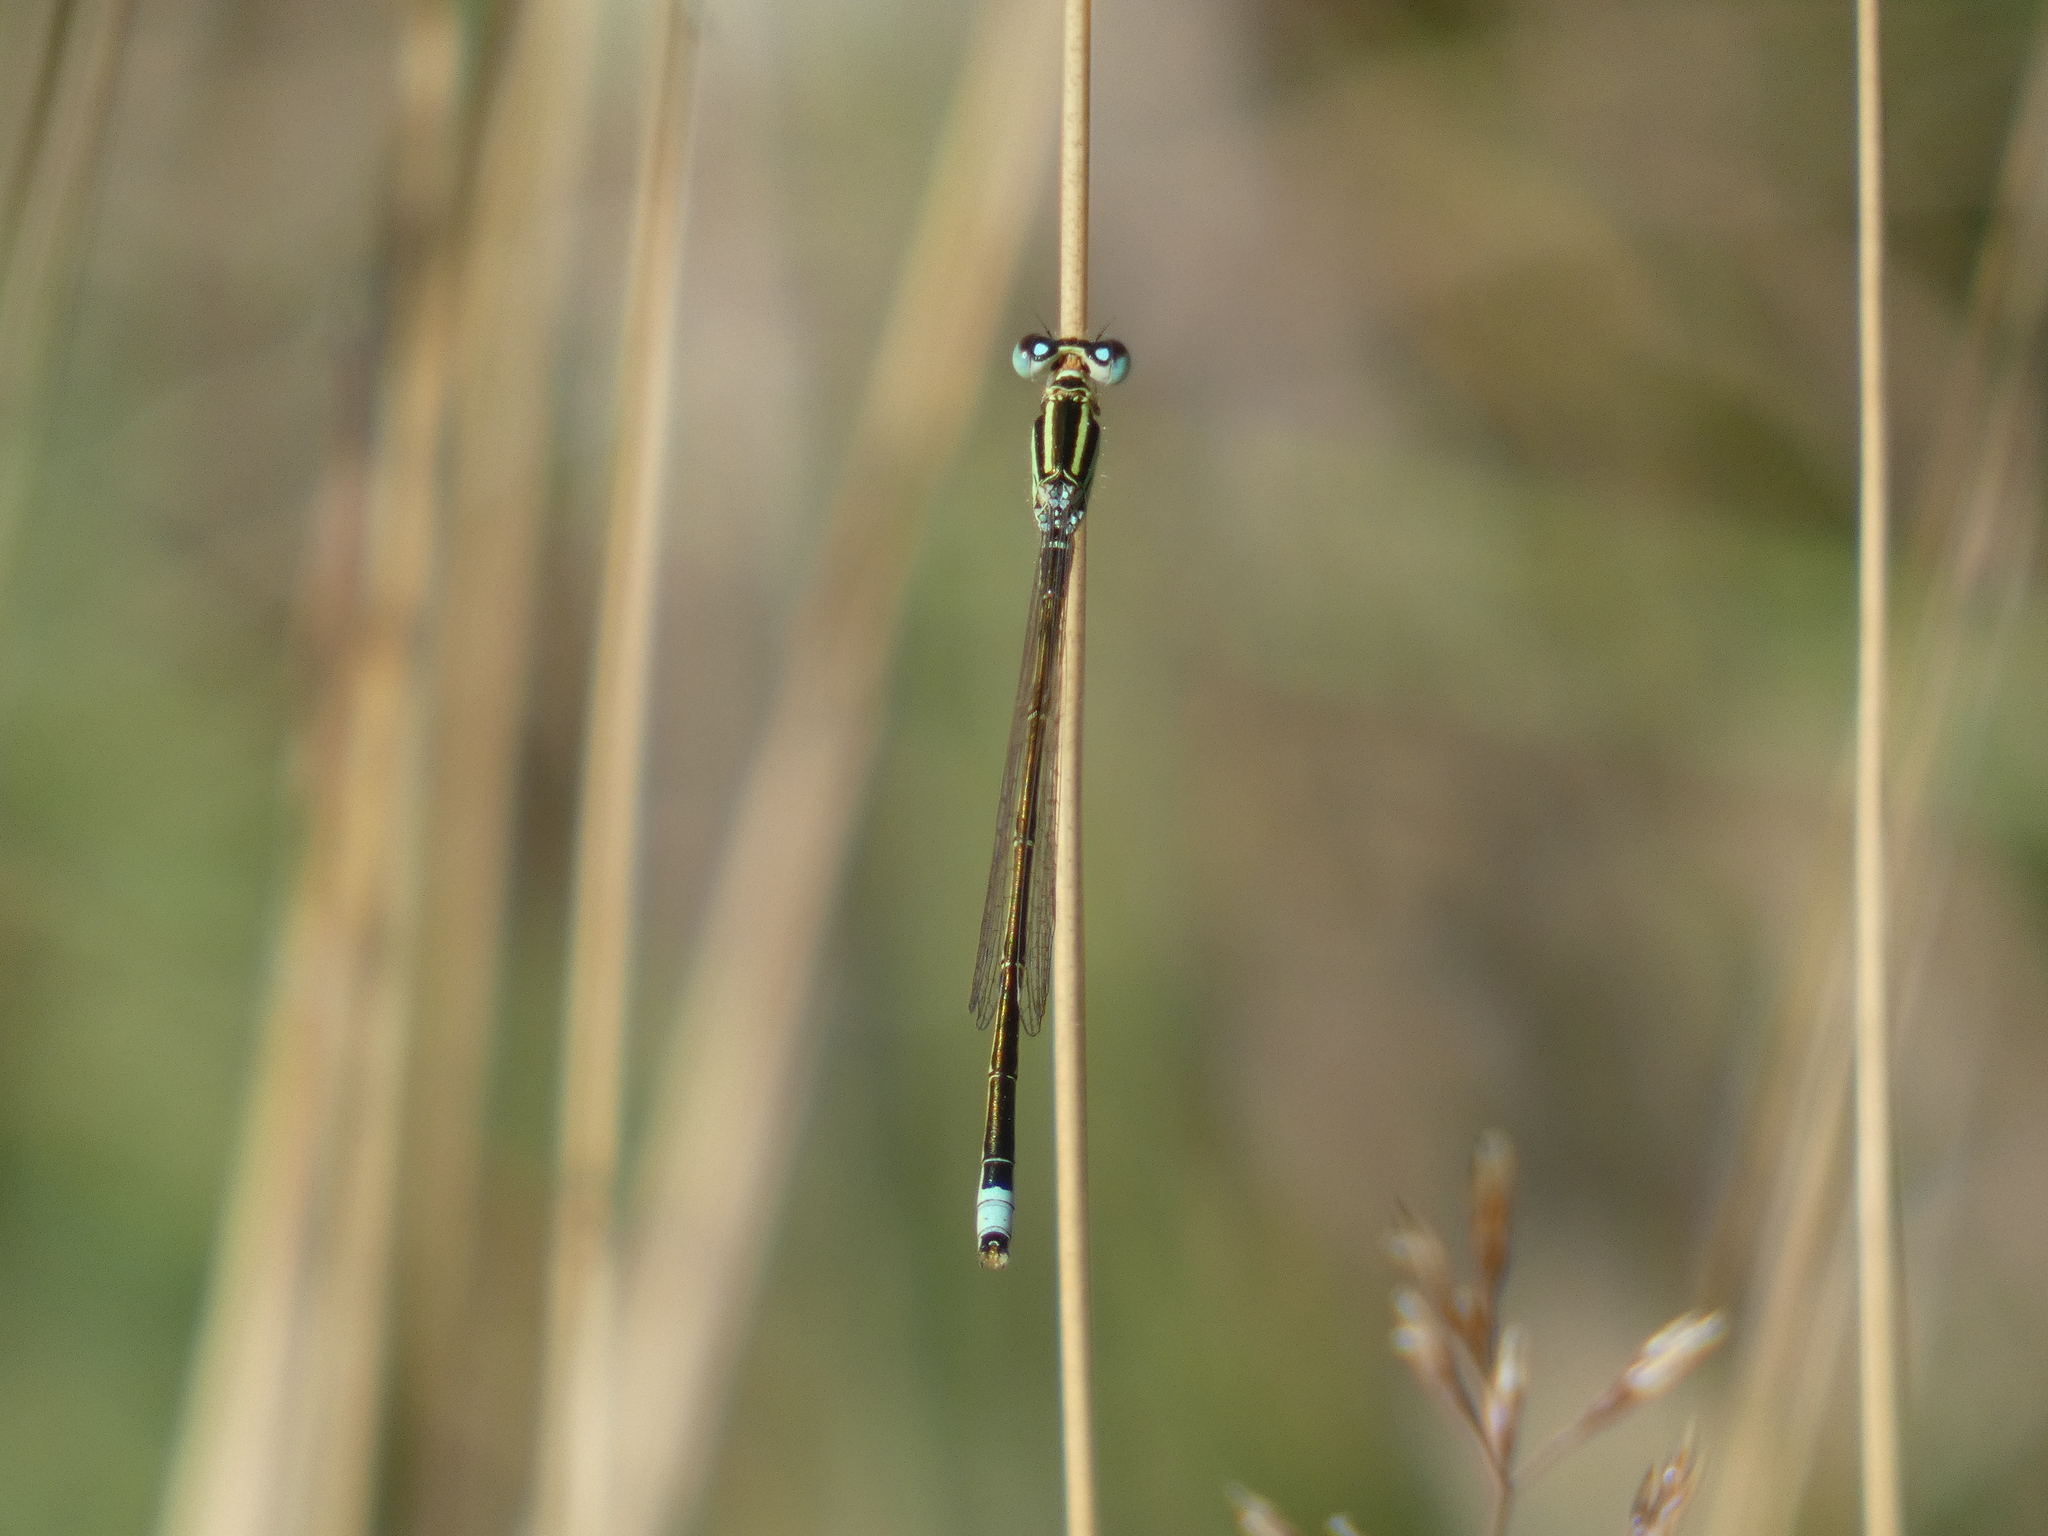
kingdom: Animalia
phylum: Arthropoda
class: Insecta
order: Odonata
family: Coenagrionidae
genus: Ischnura
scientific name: Ischnura pumilio
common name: Scarce blue-tailed damselfly
